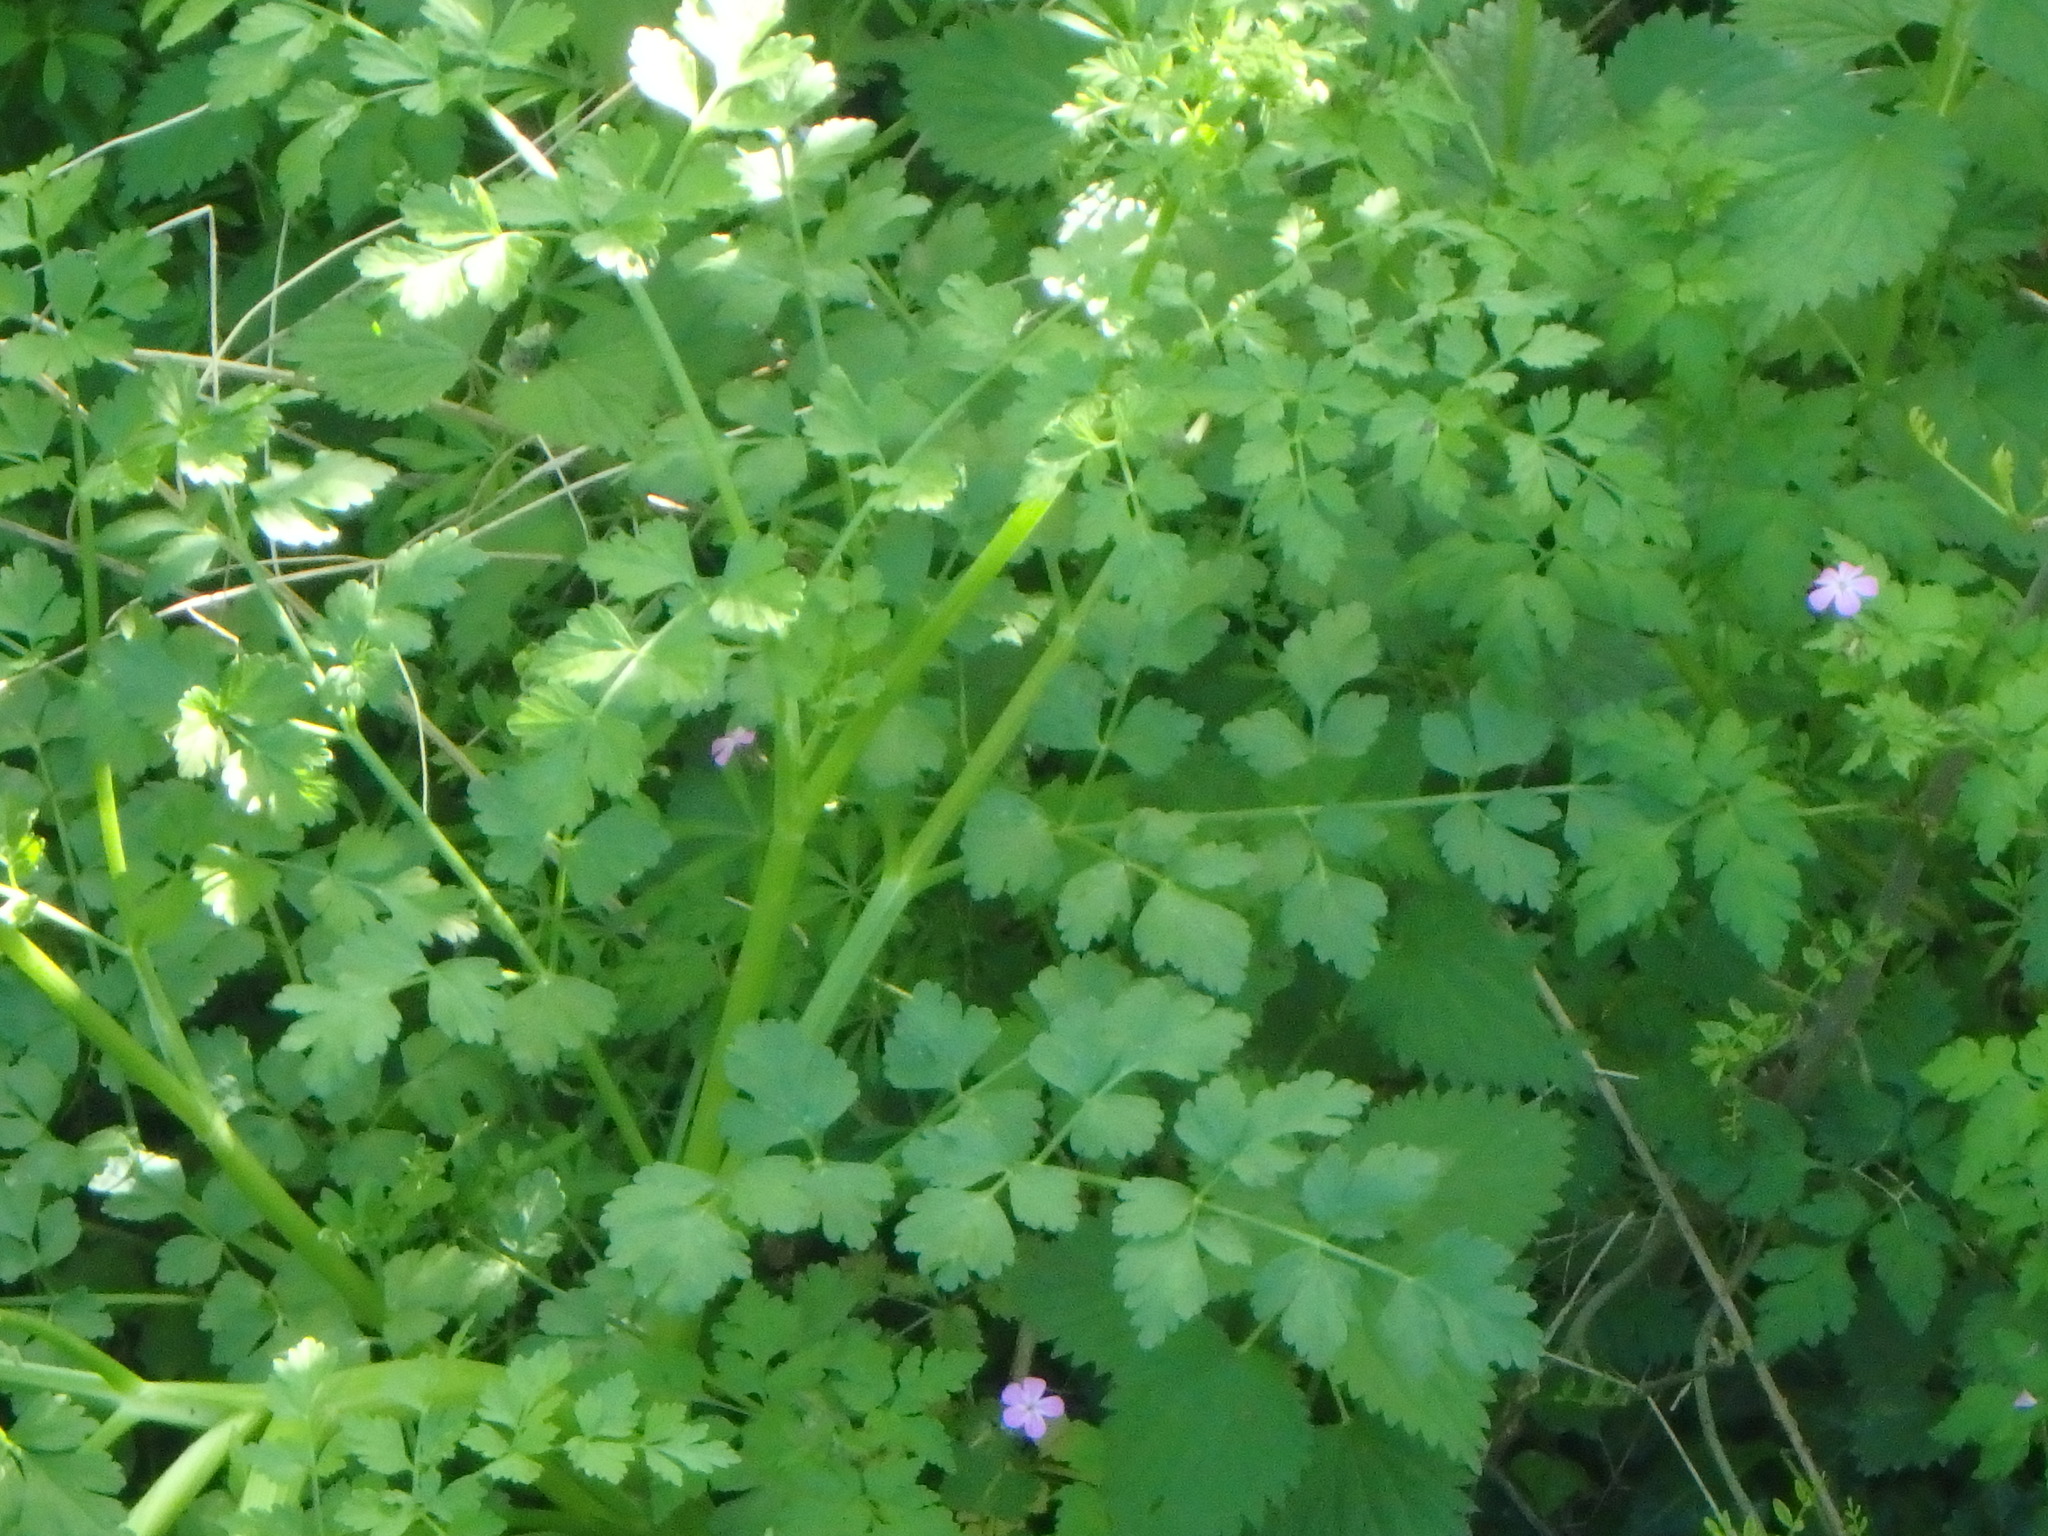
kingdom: Plantae
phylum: Tracheophyta
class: Magnoliopsida
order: Apiales
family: Apiaceae
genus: Oenanthe
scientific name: Oenanthe crocata
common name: Hemlock water-dropwort
